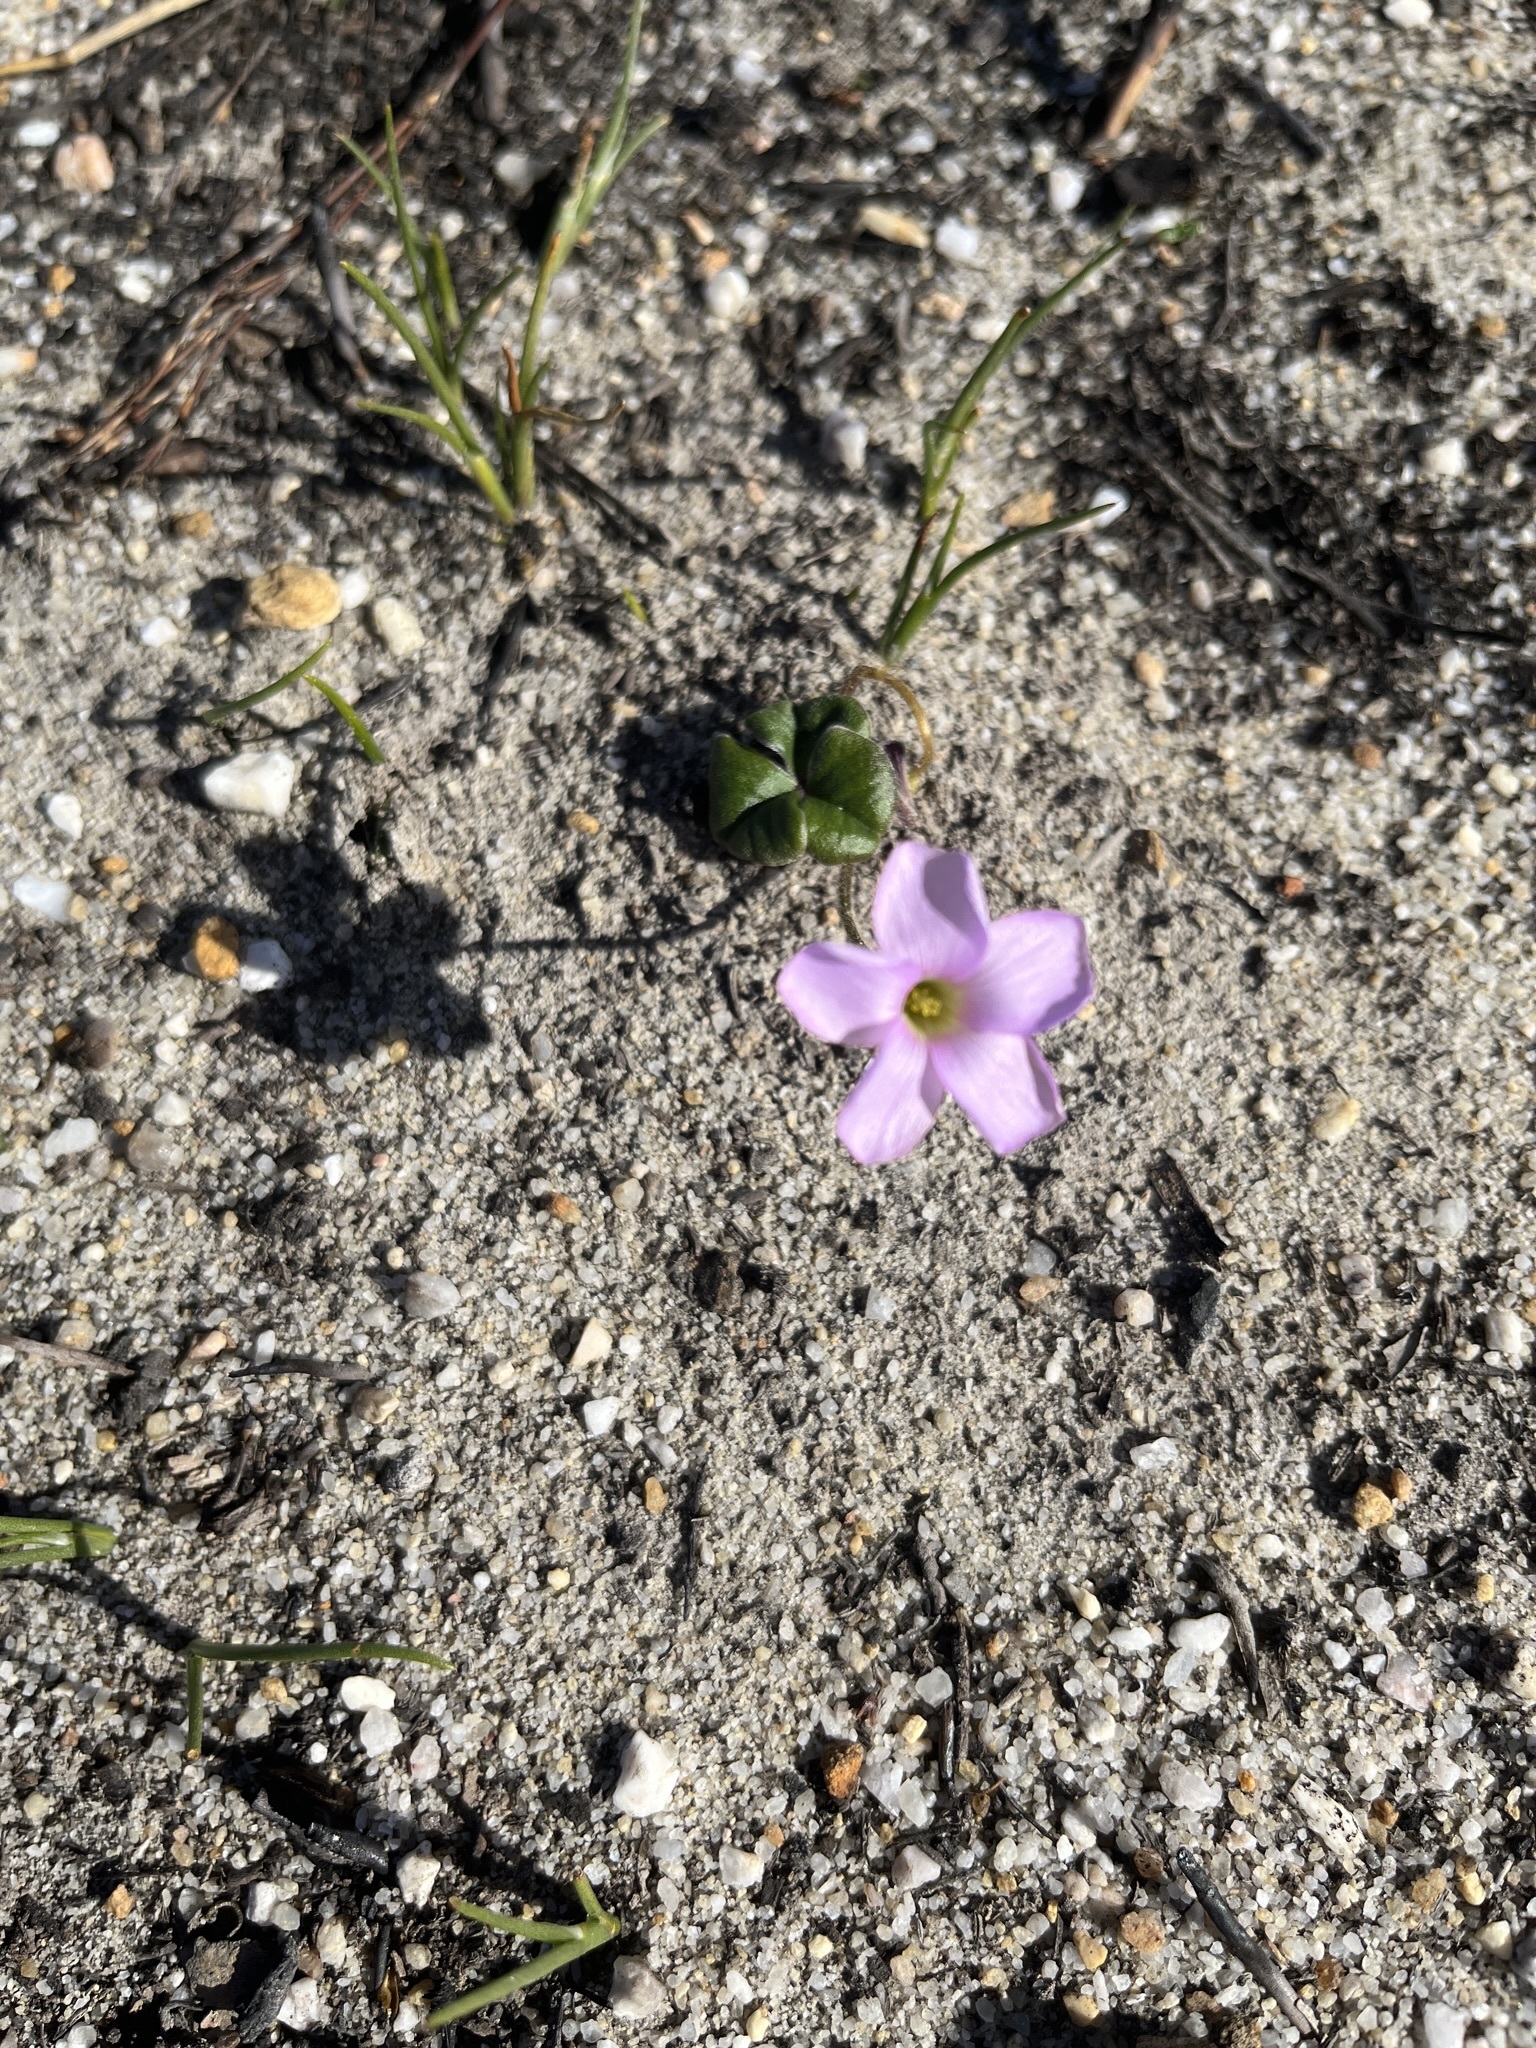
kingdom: Plantae
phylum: Tracheophyta
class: Magnoliopsida
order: Oxalidales
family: Oxalidaceae
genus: Oxalis
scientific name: Oxalis truncatula
